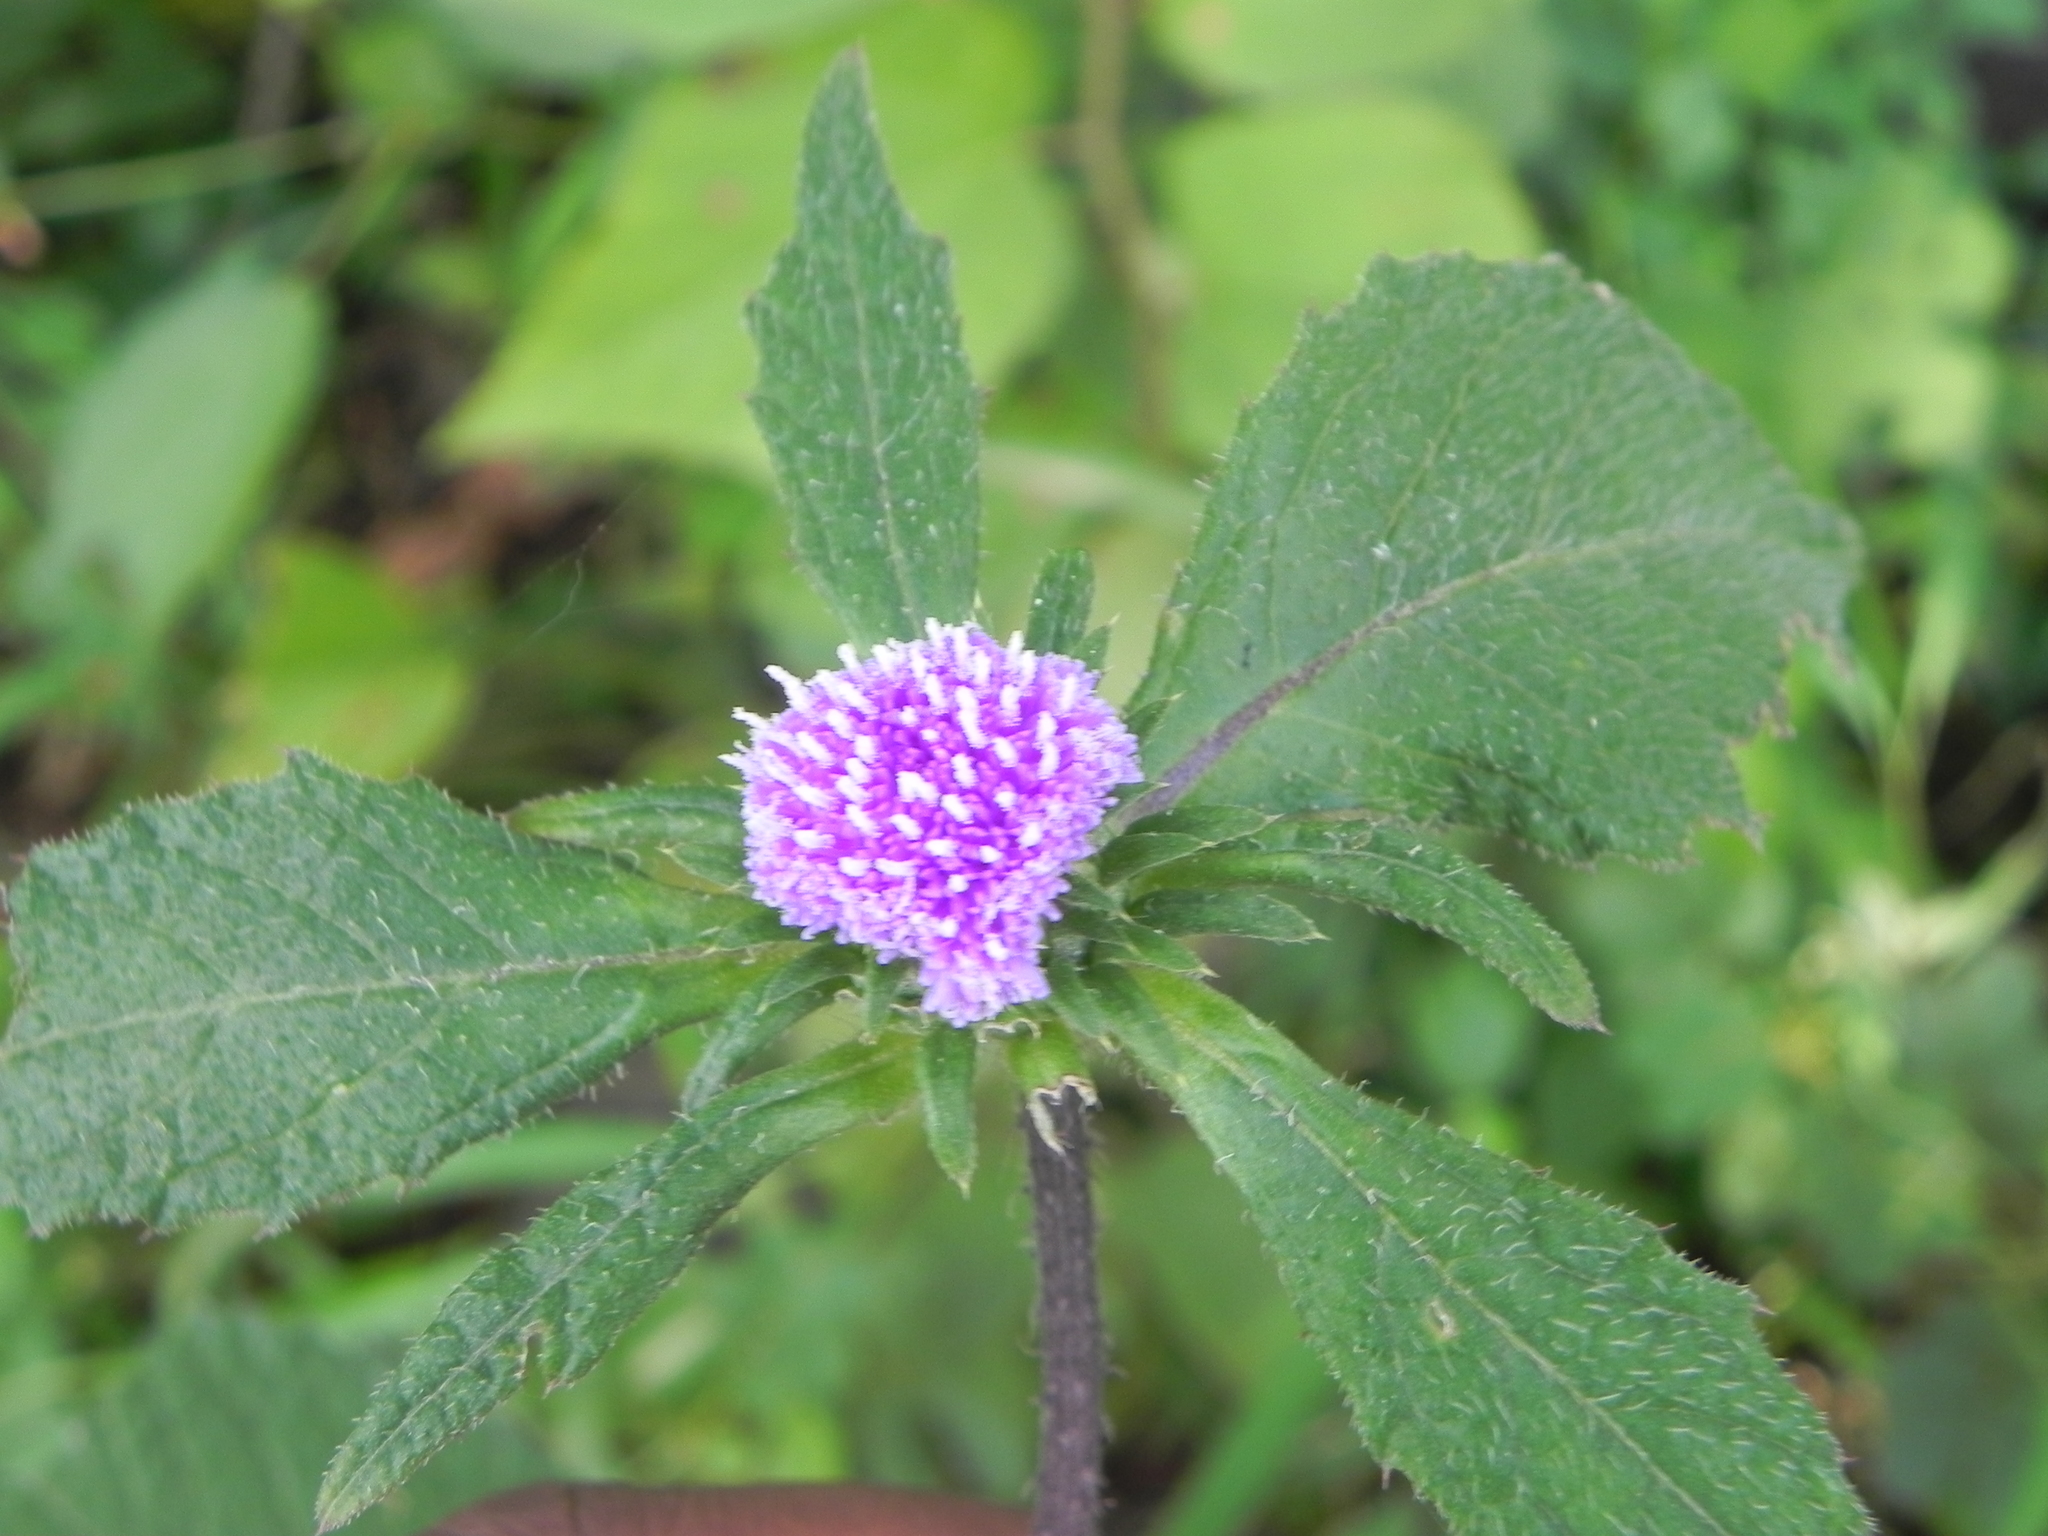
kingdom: Plantae
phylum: Tracheophyta
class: Magnoliopsida
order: Asterales
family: Asteraceae
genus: Phyllocephalum
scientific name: Phyllocephalum scabridum
